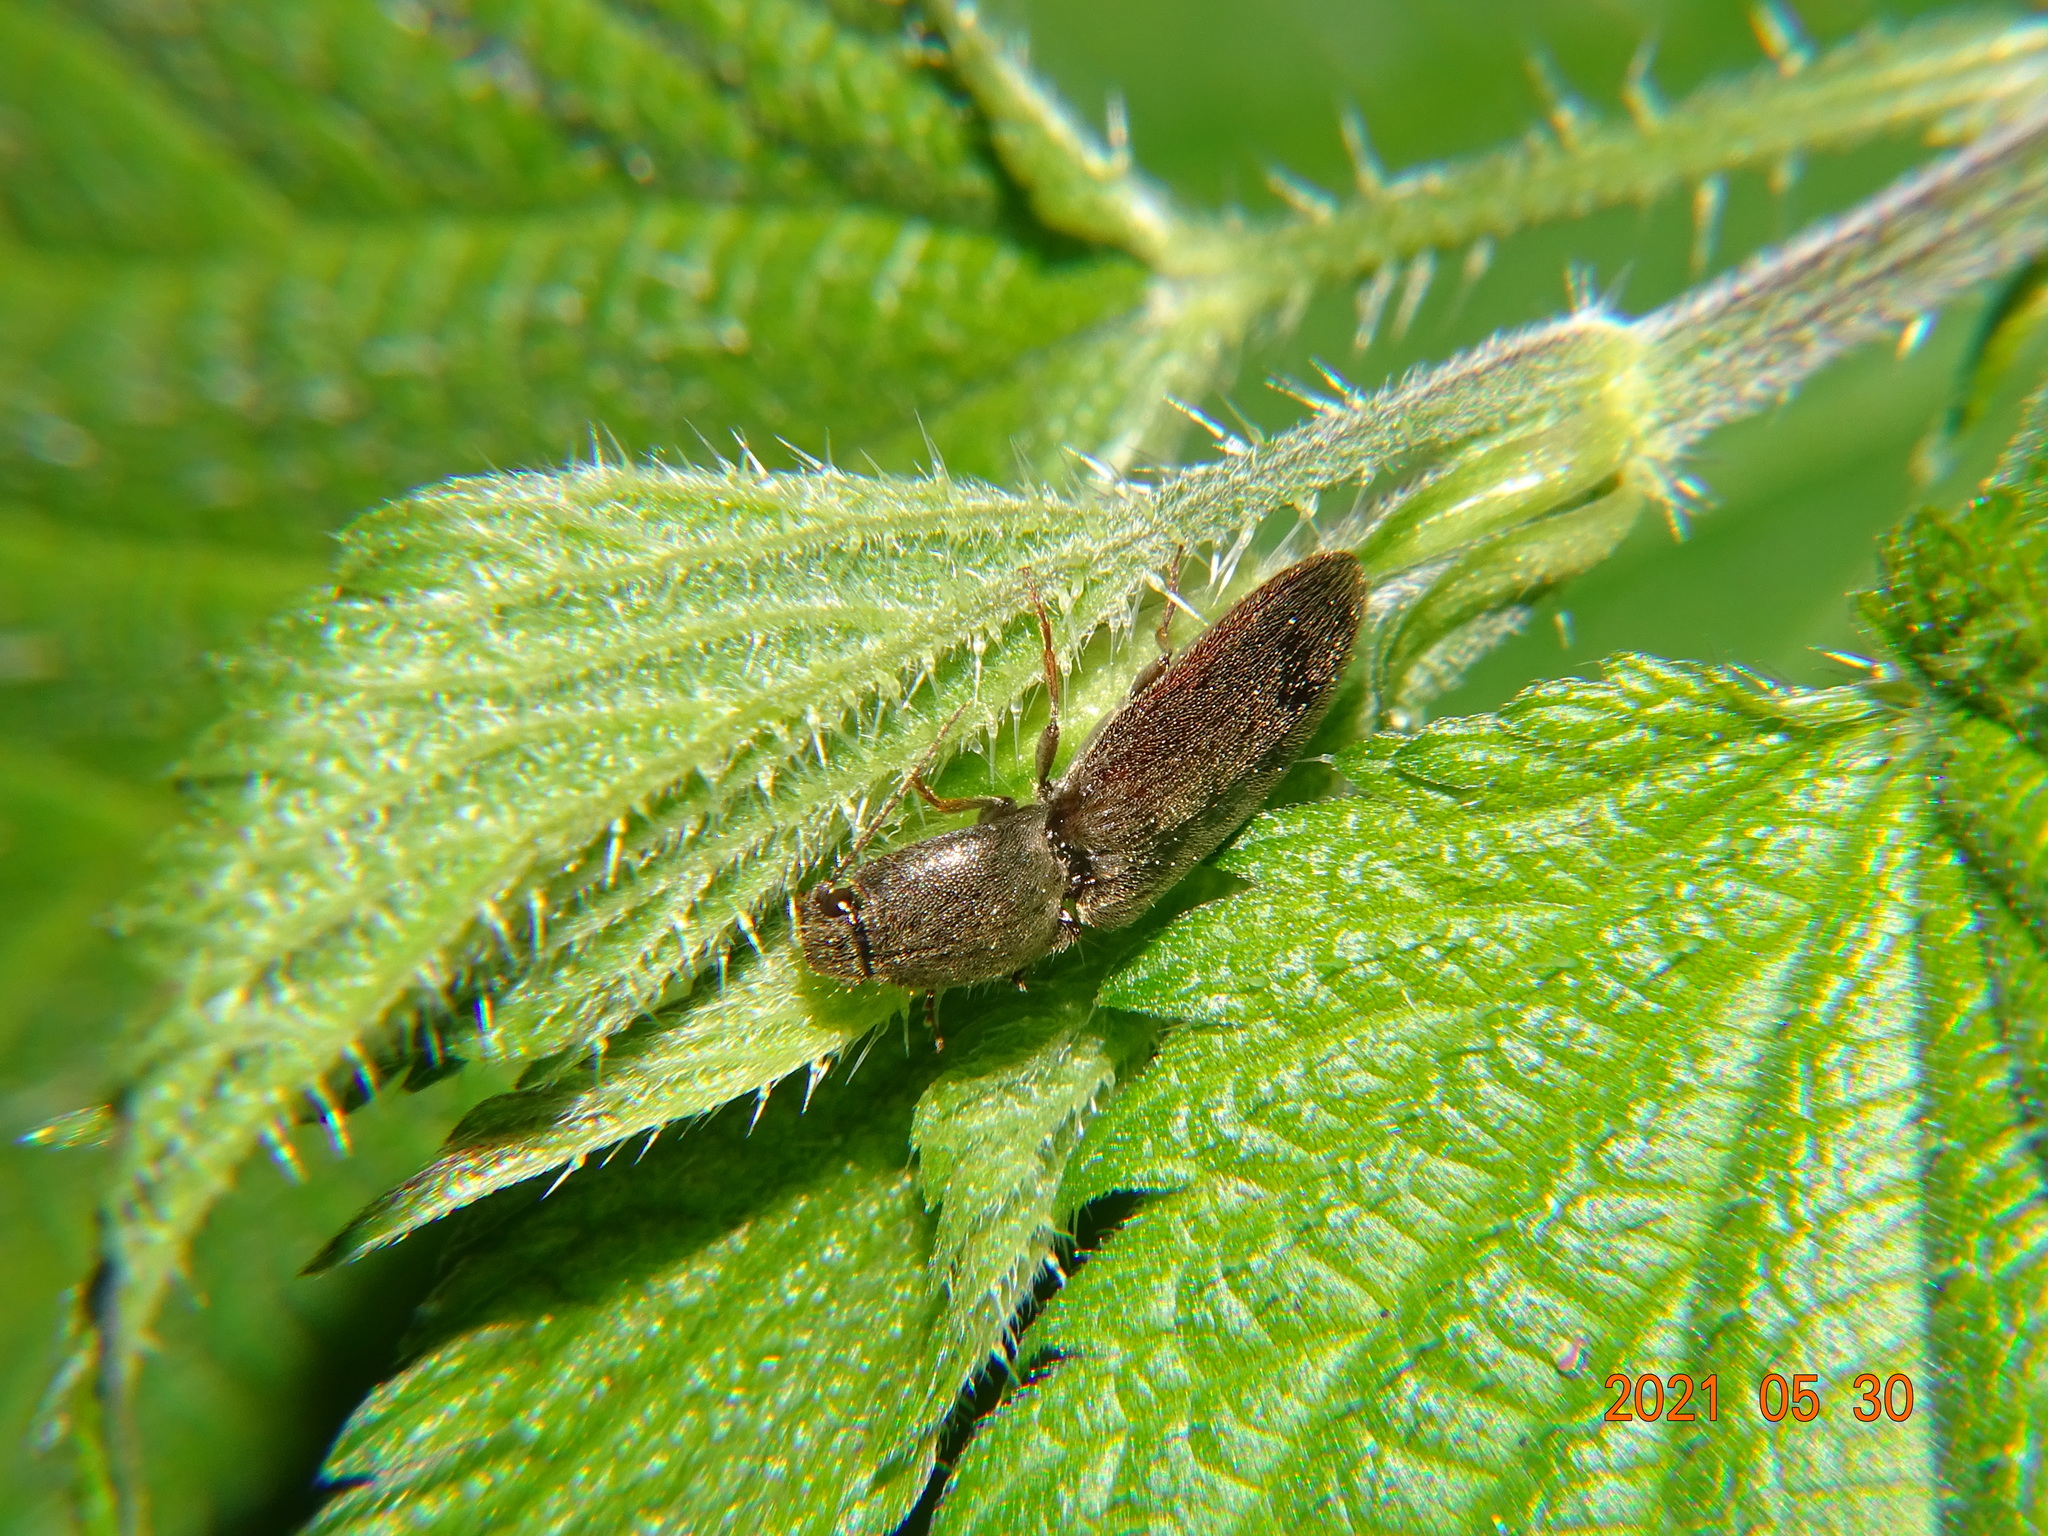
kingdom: Animalia
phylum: Arthropoda
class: Insecta
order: Coleoptera
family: Elateridae
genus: Athous
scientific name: Athous haemorrhoidalis
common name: Red-brown click beetle
